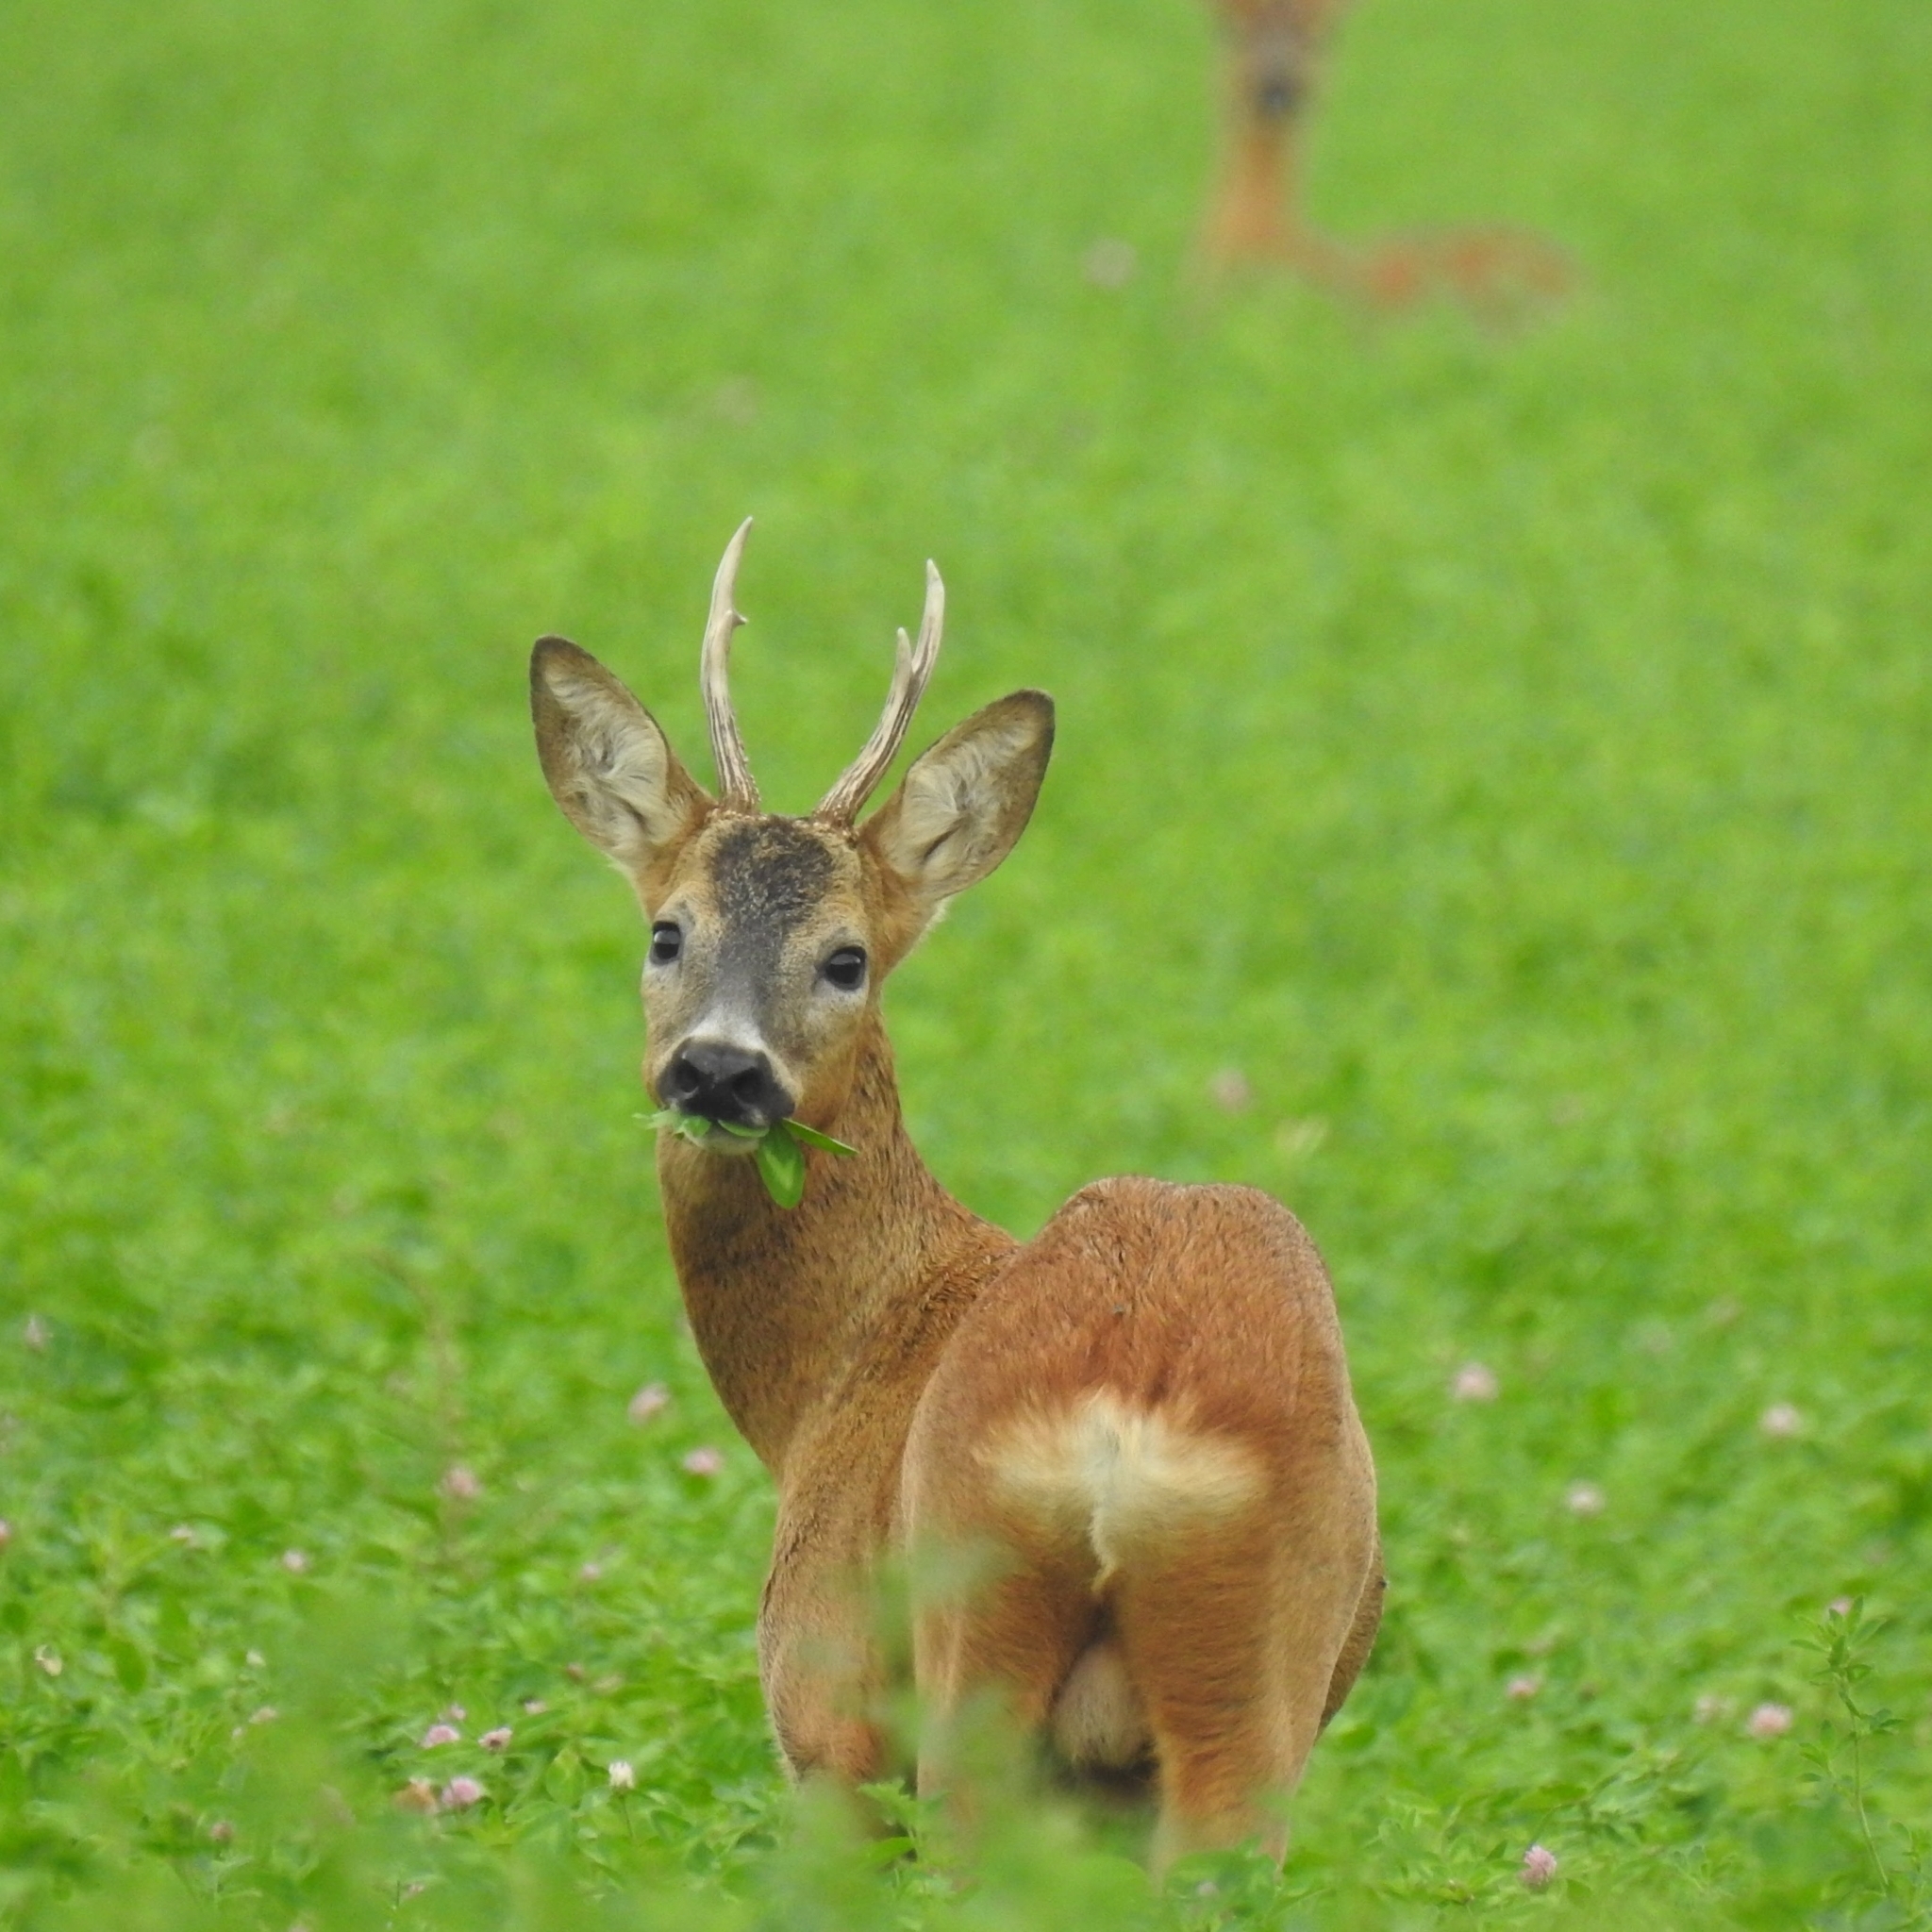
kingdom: Animalia
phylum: Chordata
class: Mammalia
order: Artiodactyla
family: Cervidae
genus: Capreolus
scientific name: Capreolus capreolus
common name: Western roe deer
